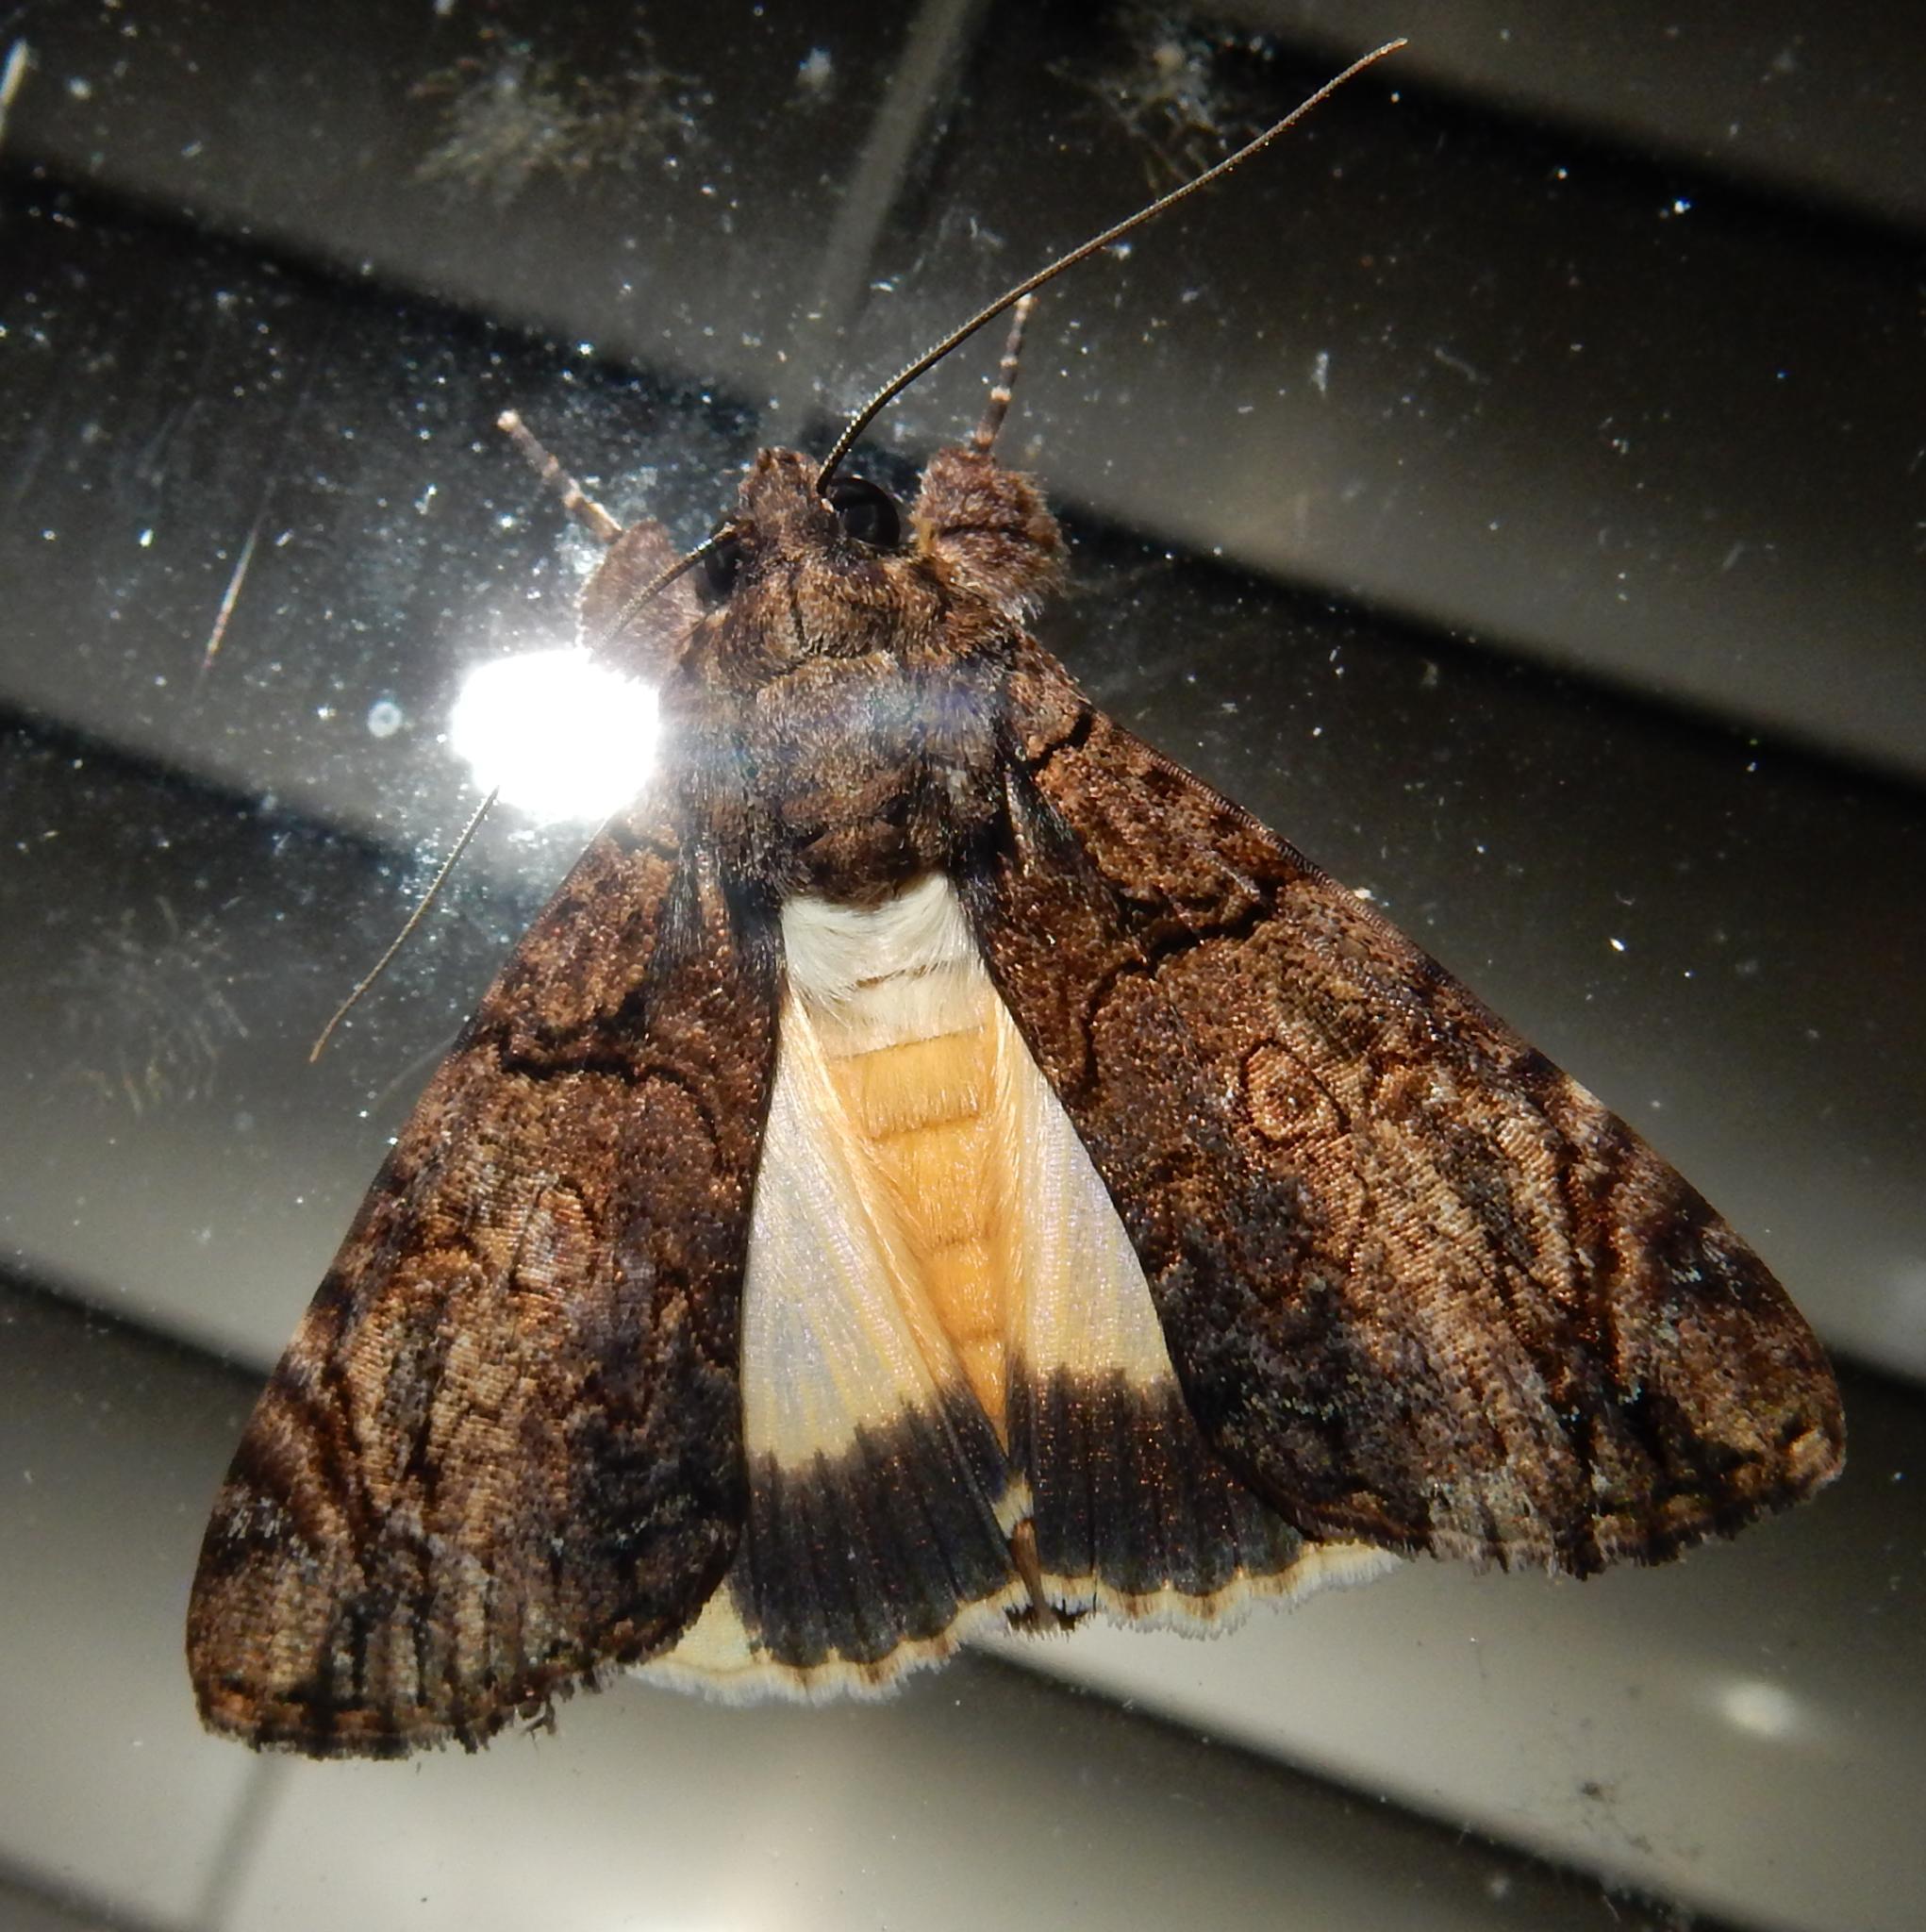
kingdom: Animalia
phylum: Arthropoda
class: Insecta
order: Lepidoptera
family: Erebidae
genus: Ulotrichopus
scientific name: Ulotrichopus primulina
